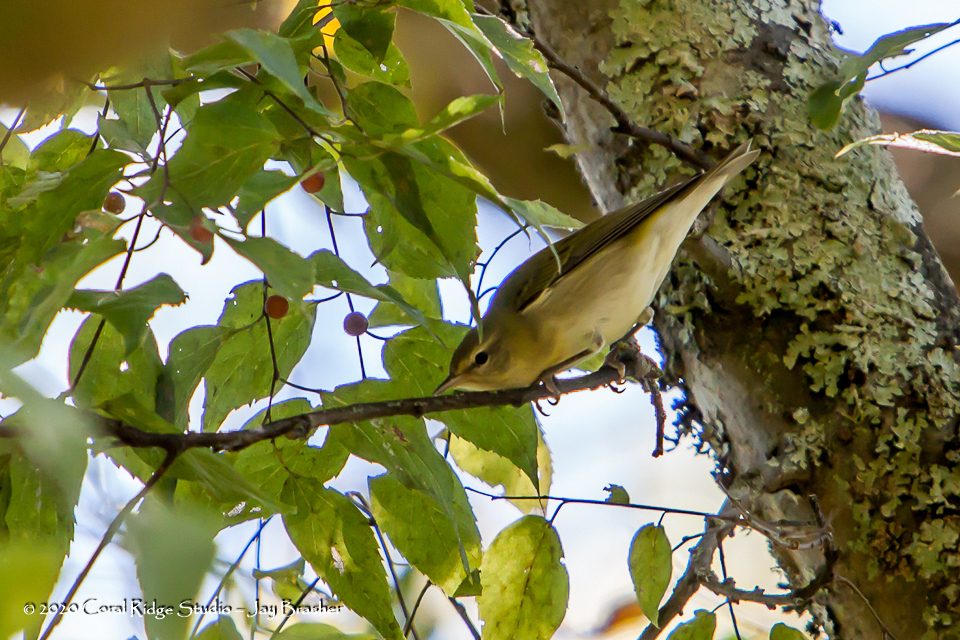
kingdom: Animalia
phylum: Chordata
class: Aves
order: Passeriformes
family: Parulidae
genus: Leiothlypis
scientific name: Leiothlypis peregrina
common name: Tennessee warbler
